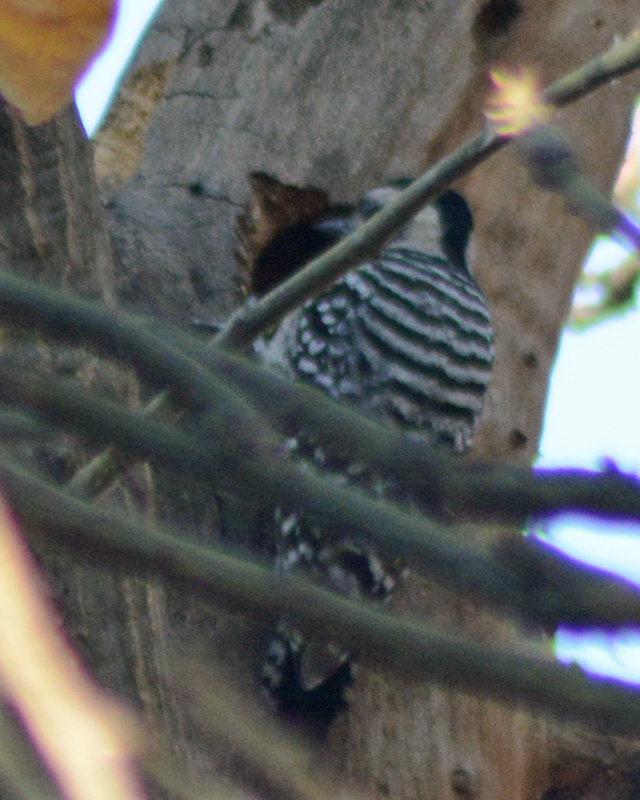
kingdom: Animalia
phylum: Chordata
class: Aves
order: Piciformes
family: Picidae
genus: Dryobates
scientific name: Dryobates scalaris
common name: Ladder-backed woodpecker
